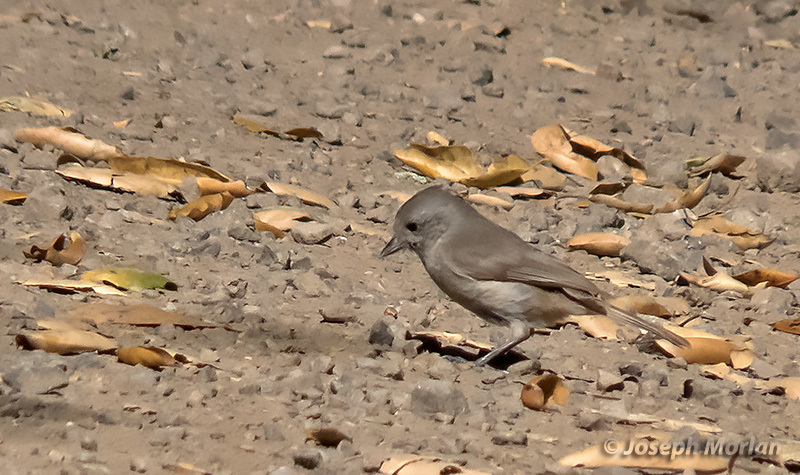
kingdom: Animalia
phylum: Chordata
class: Aves
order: Passeriformes
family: Paridae
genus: Baeolophus
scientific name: Baeolophus inornatus
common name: Oak titmouse
